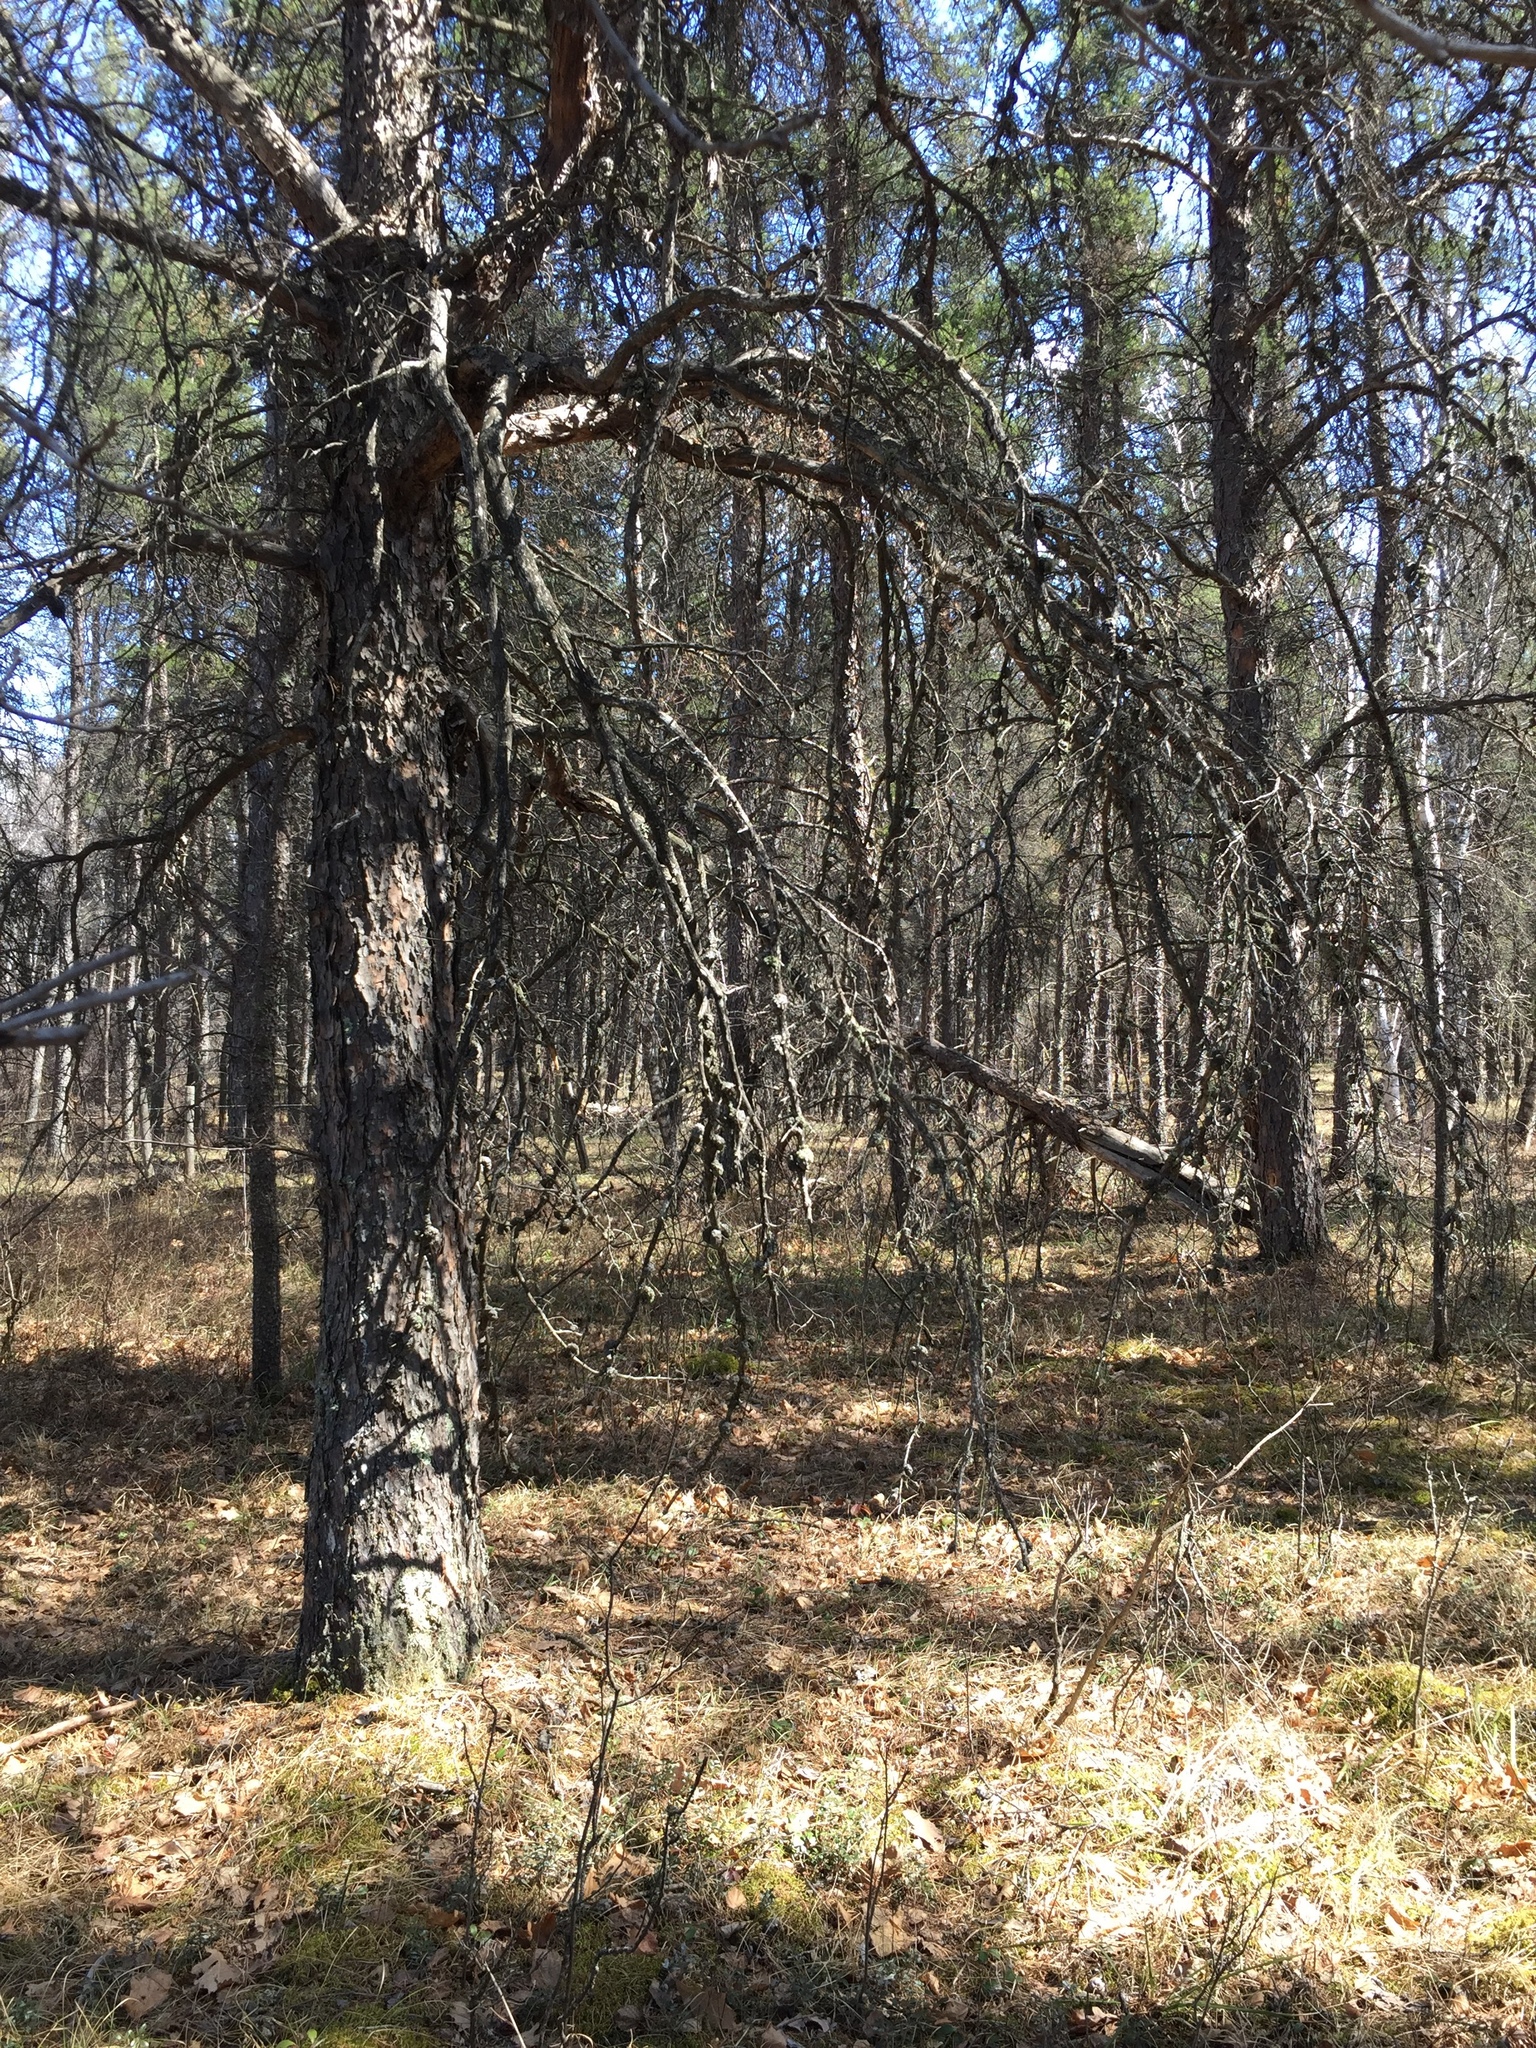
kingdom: Plantae
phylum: Tracheophyta
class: Pinopsida
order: Pinales
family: Pinaceae
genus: Pinus
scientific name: Pinus banksiana
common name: Jack pine
